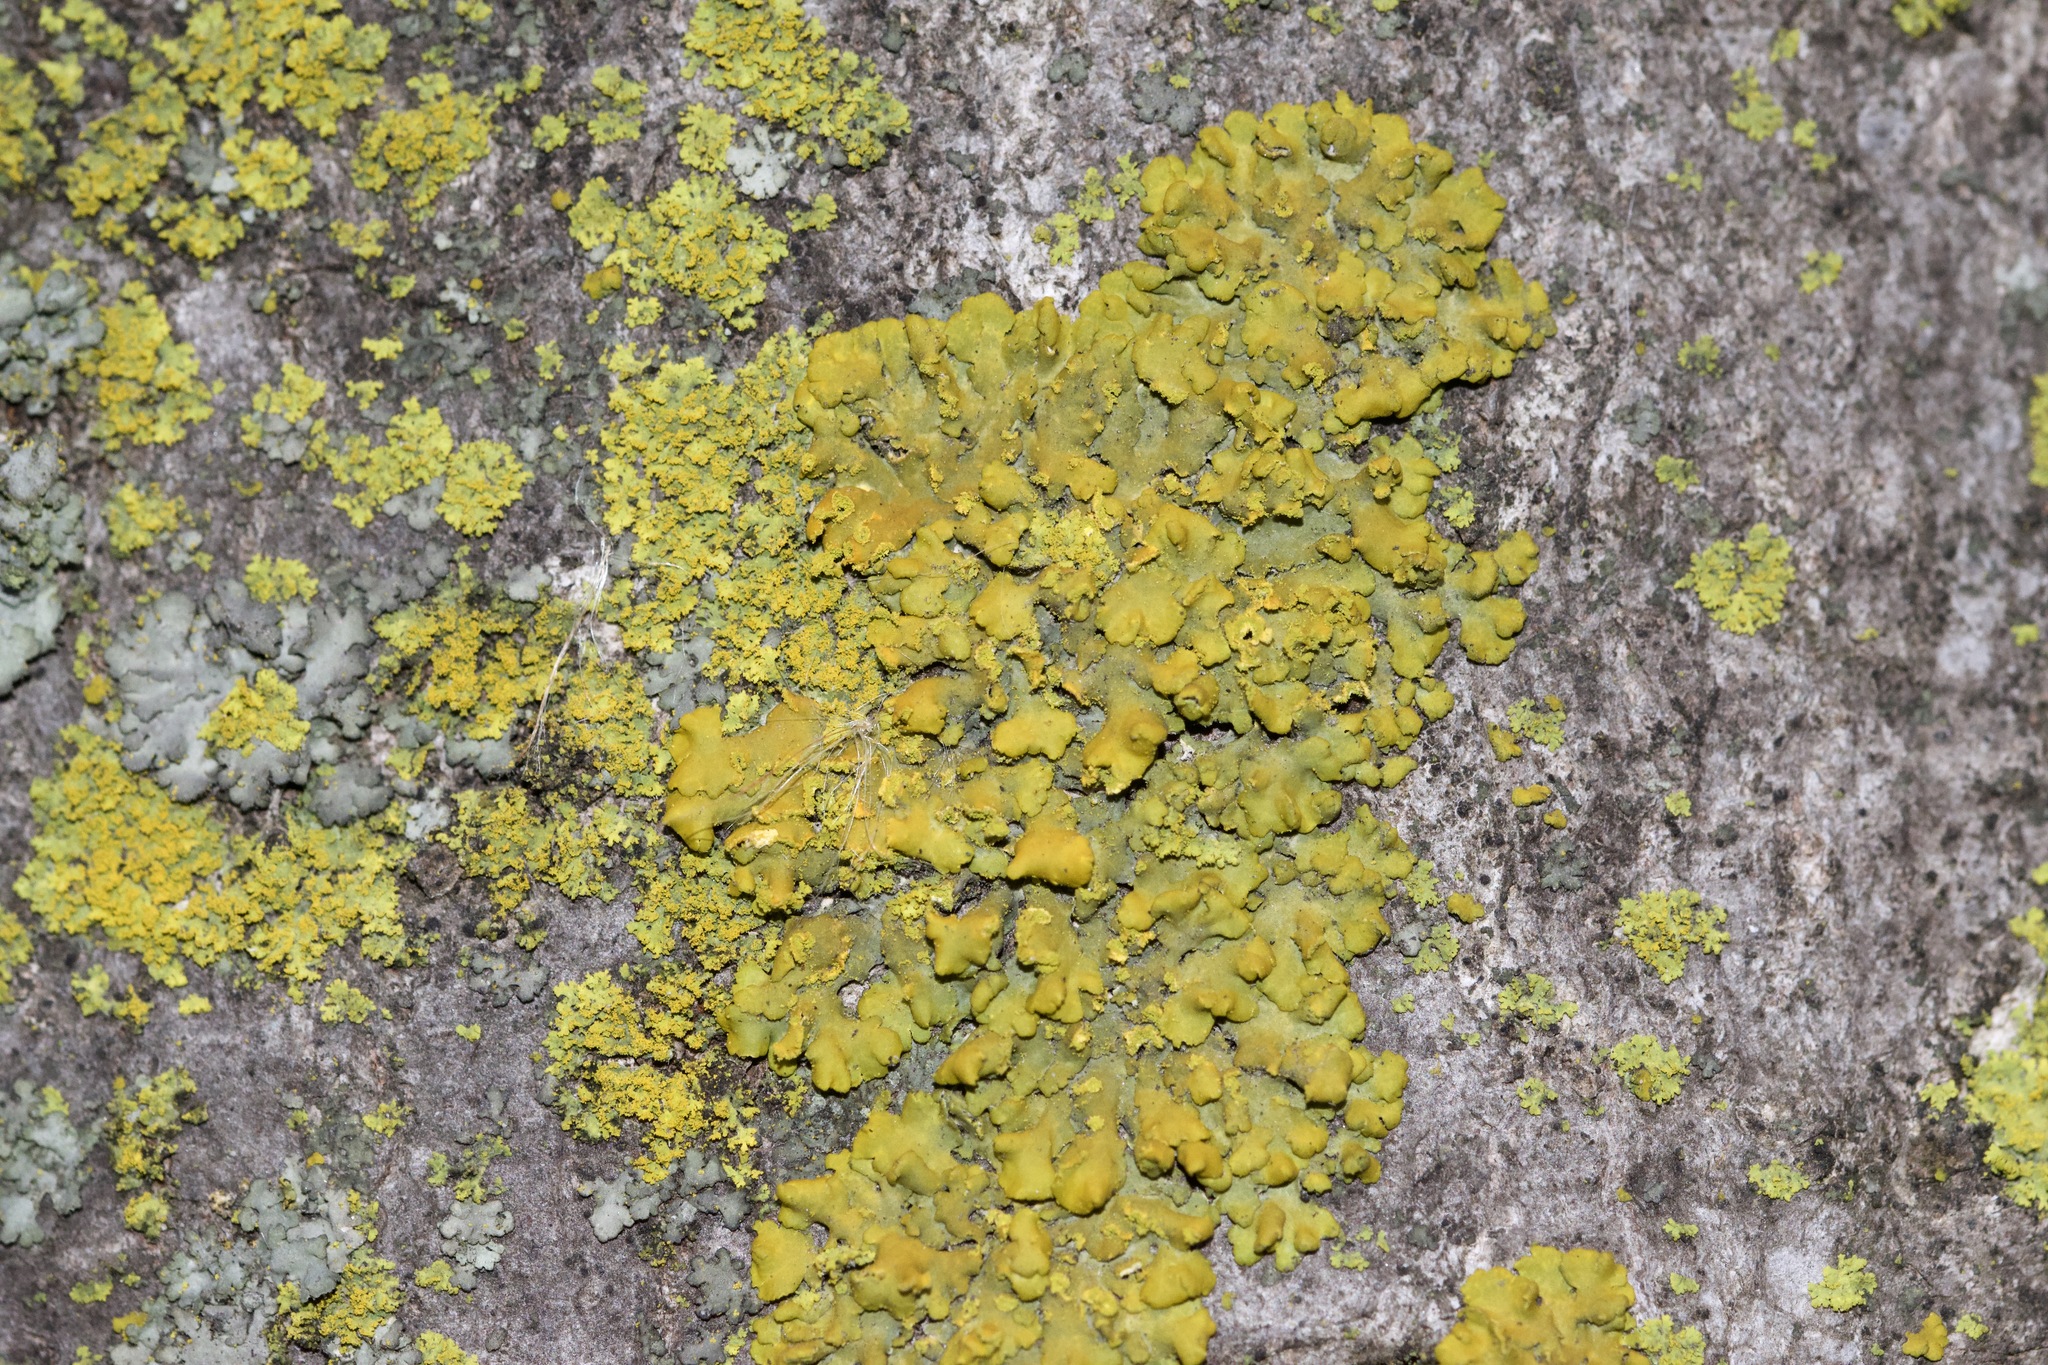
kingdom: Fungi
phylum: Ascomycota
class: Lecanoromycetes
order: Teloschistales
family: Teloschistaceae
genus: Oxneria
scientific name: Oxneria fallax
